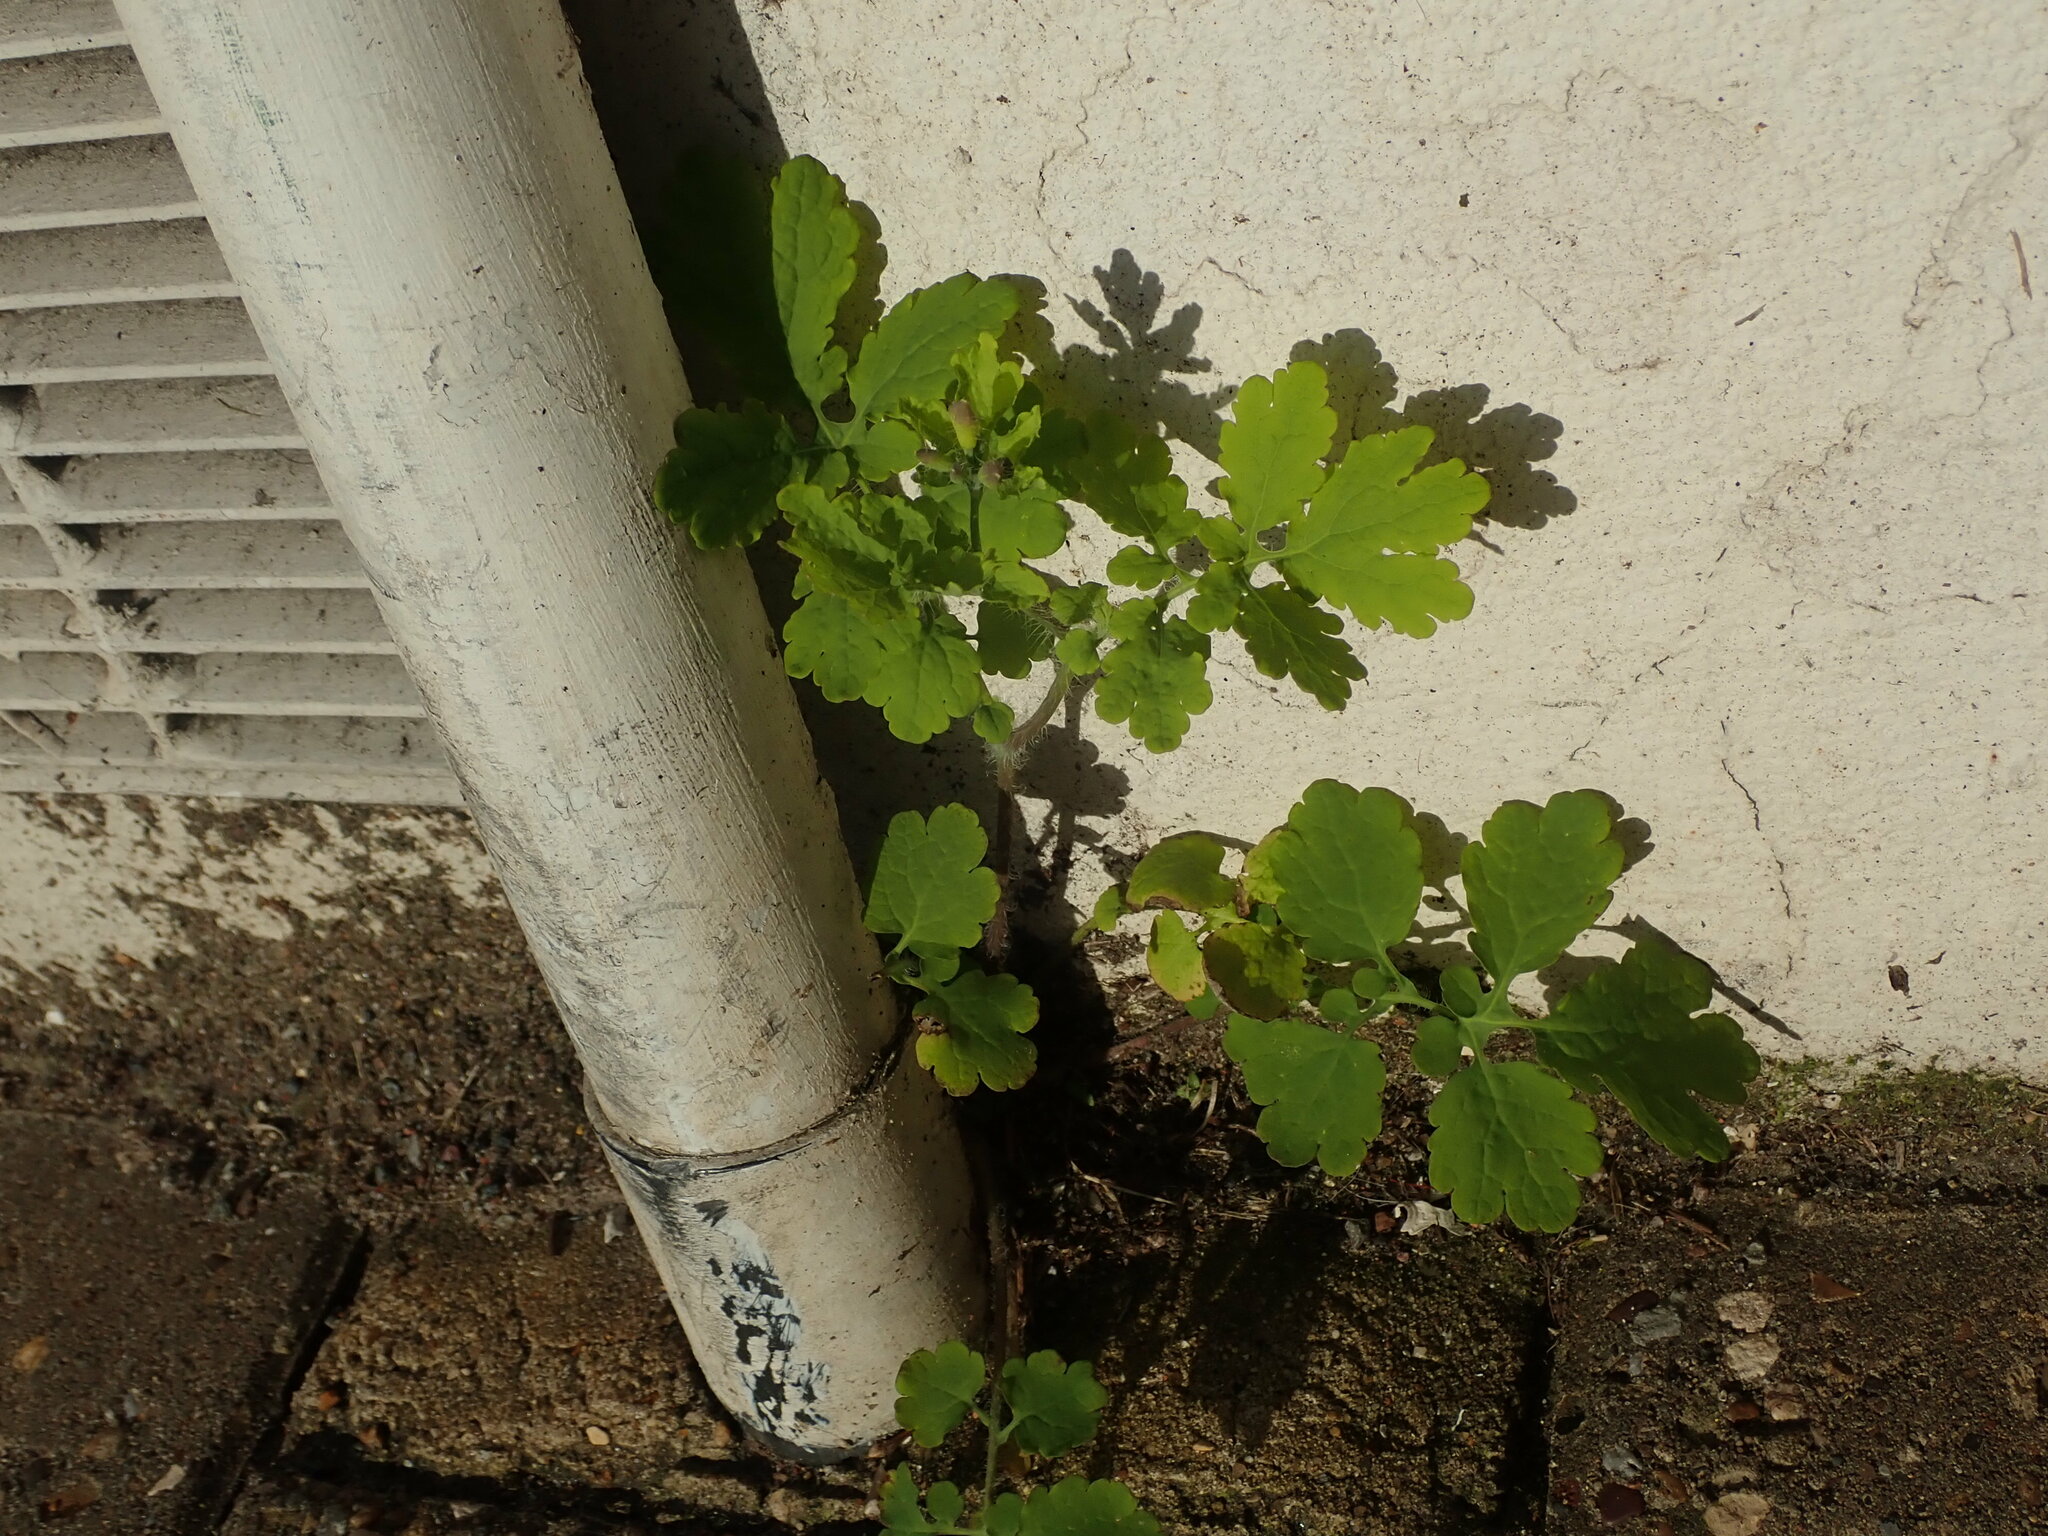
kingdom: Plantae
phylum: Tracheophyta
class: Magnoliopsida
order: Ranunculales
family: Papaveraceae
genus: Chelidonium
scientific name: Chelidonium majus
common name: Greater celandine
